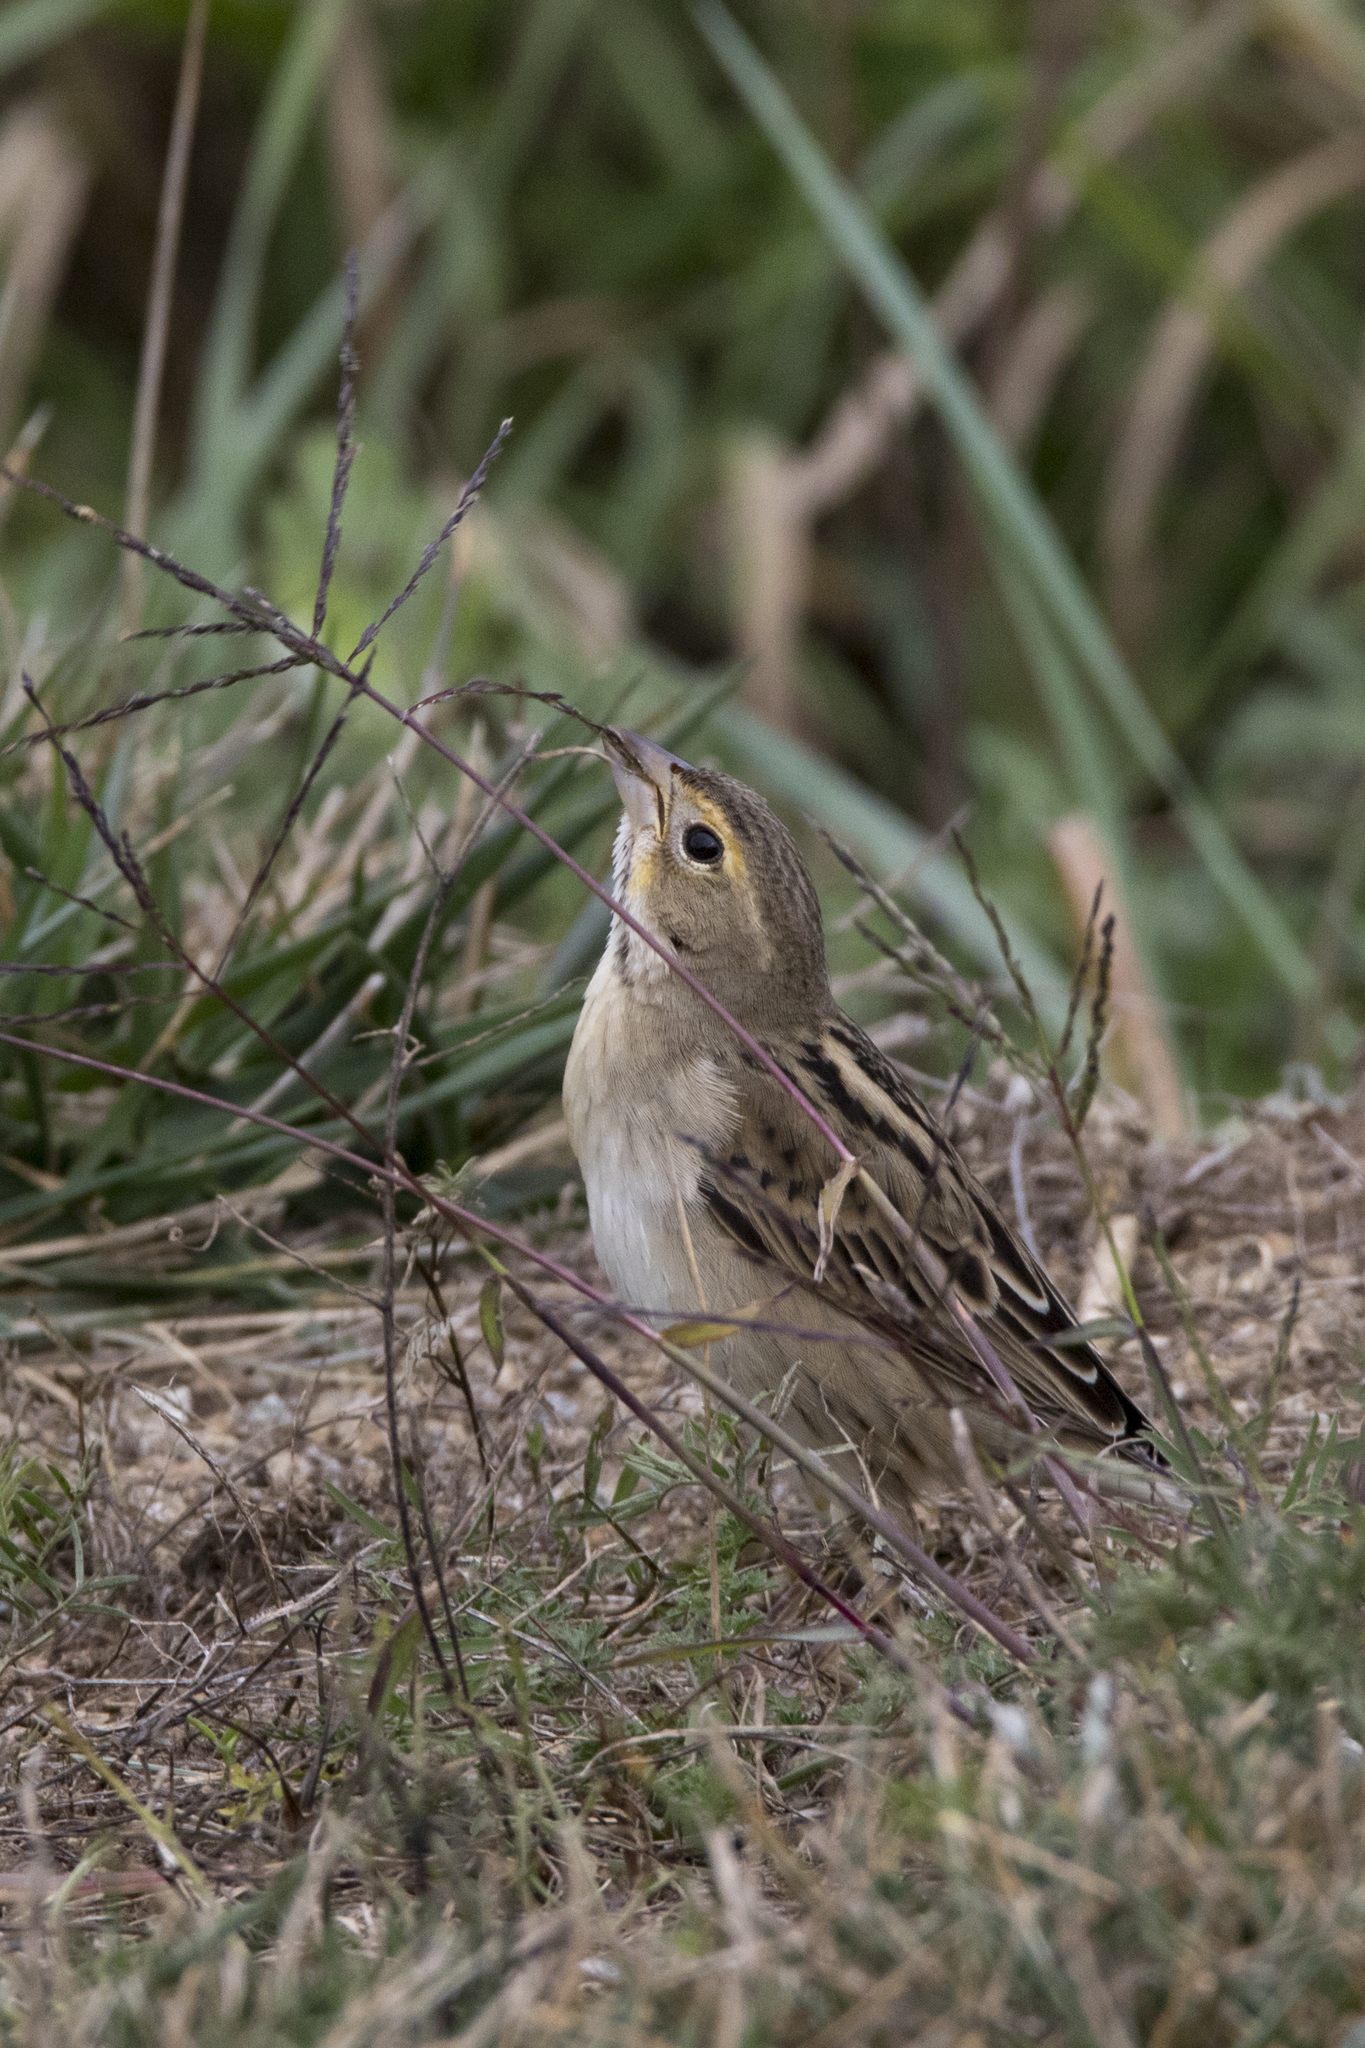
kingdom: Animalia
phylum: Chordata
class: Aves
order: Passeriformes
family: Cardinalidae
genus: Spiza
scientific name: Spiza americana
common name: Dickcissel
